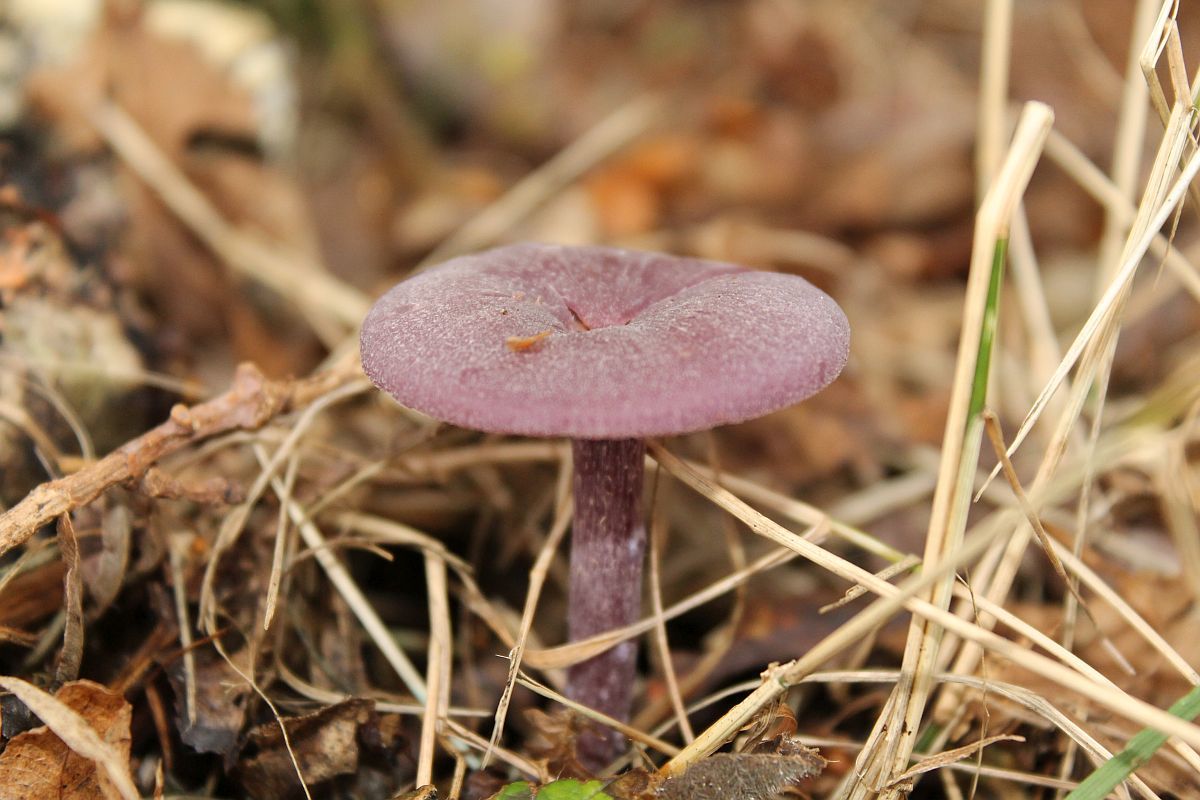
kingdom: Fungi
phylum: Basidiomycota
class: Agaricomycetes
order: Agaricales
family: Hydnangiaceae
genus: Laccaria
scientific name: Laccaria amethystina
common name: Amethyst deceiver
